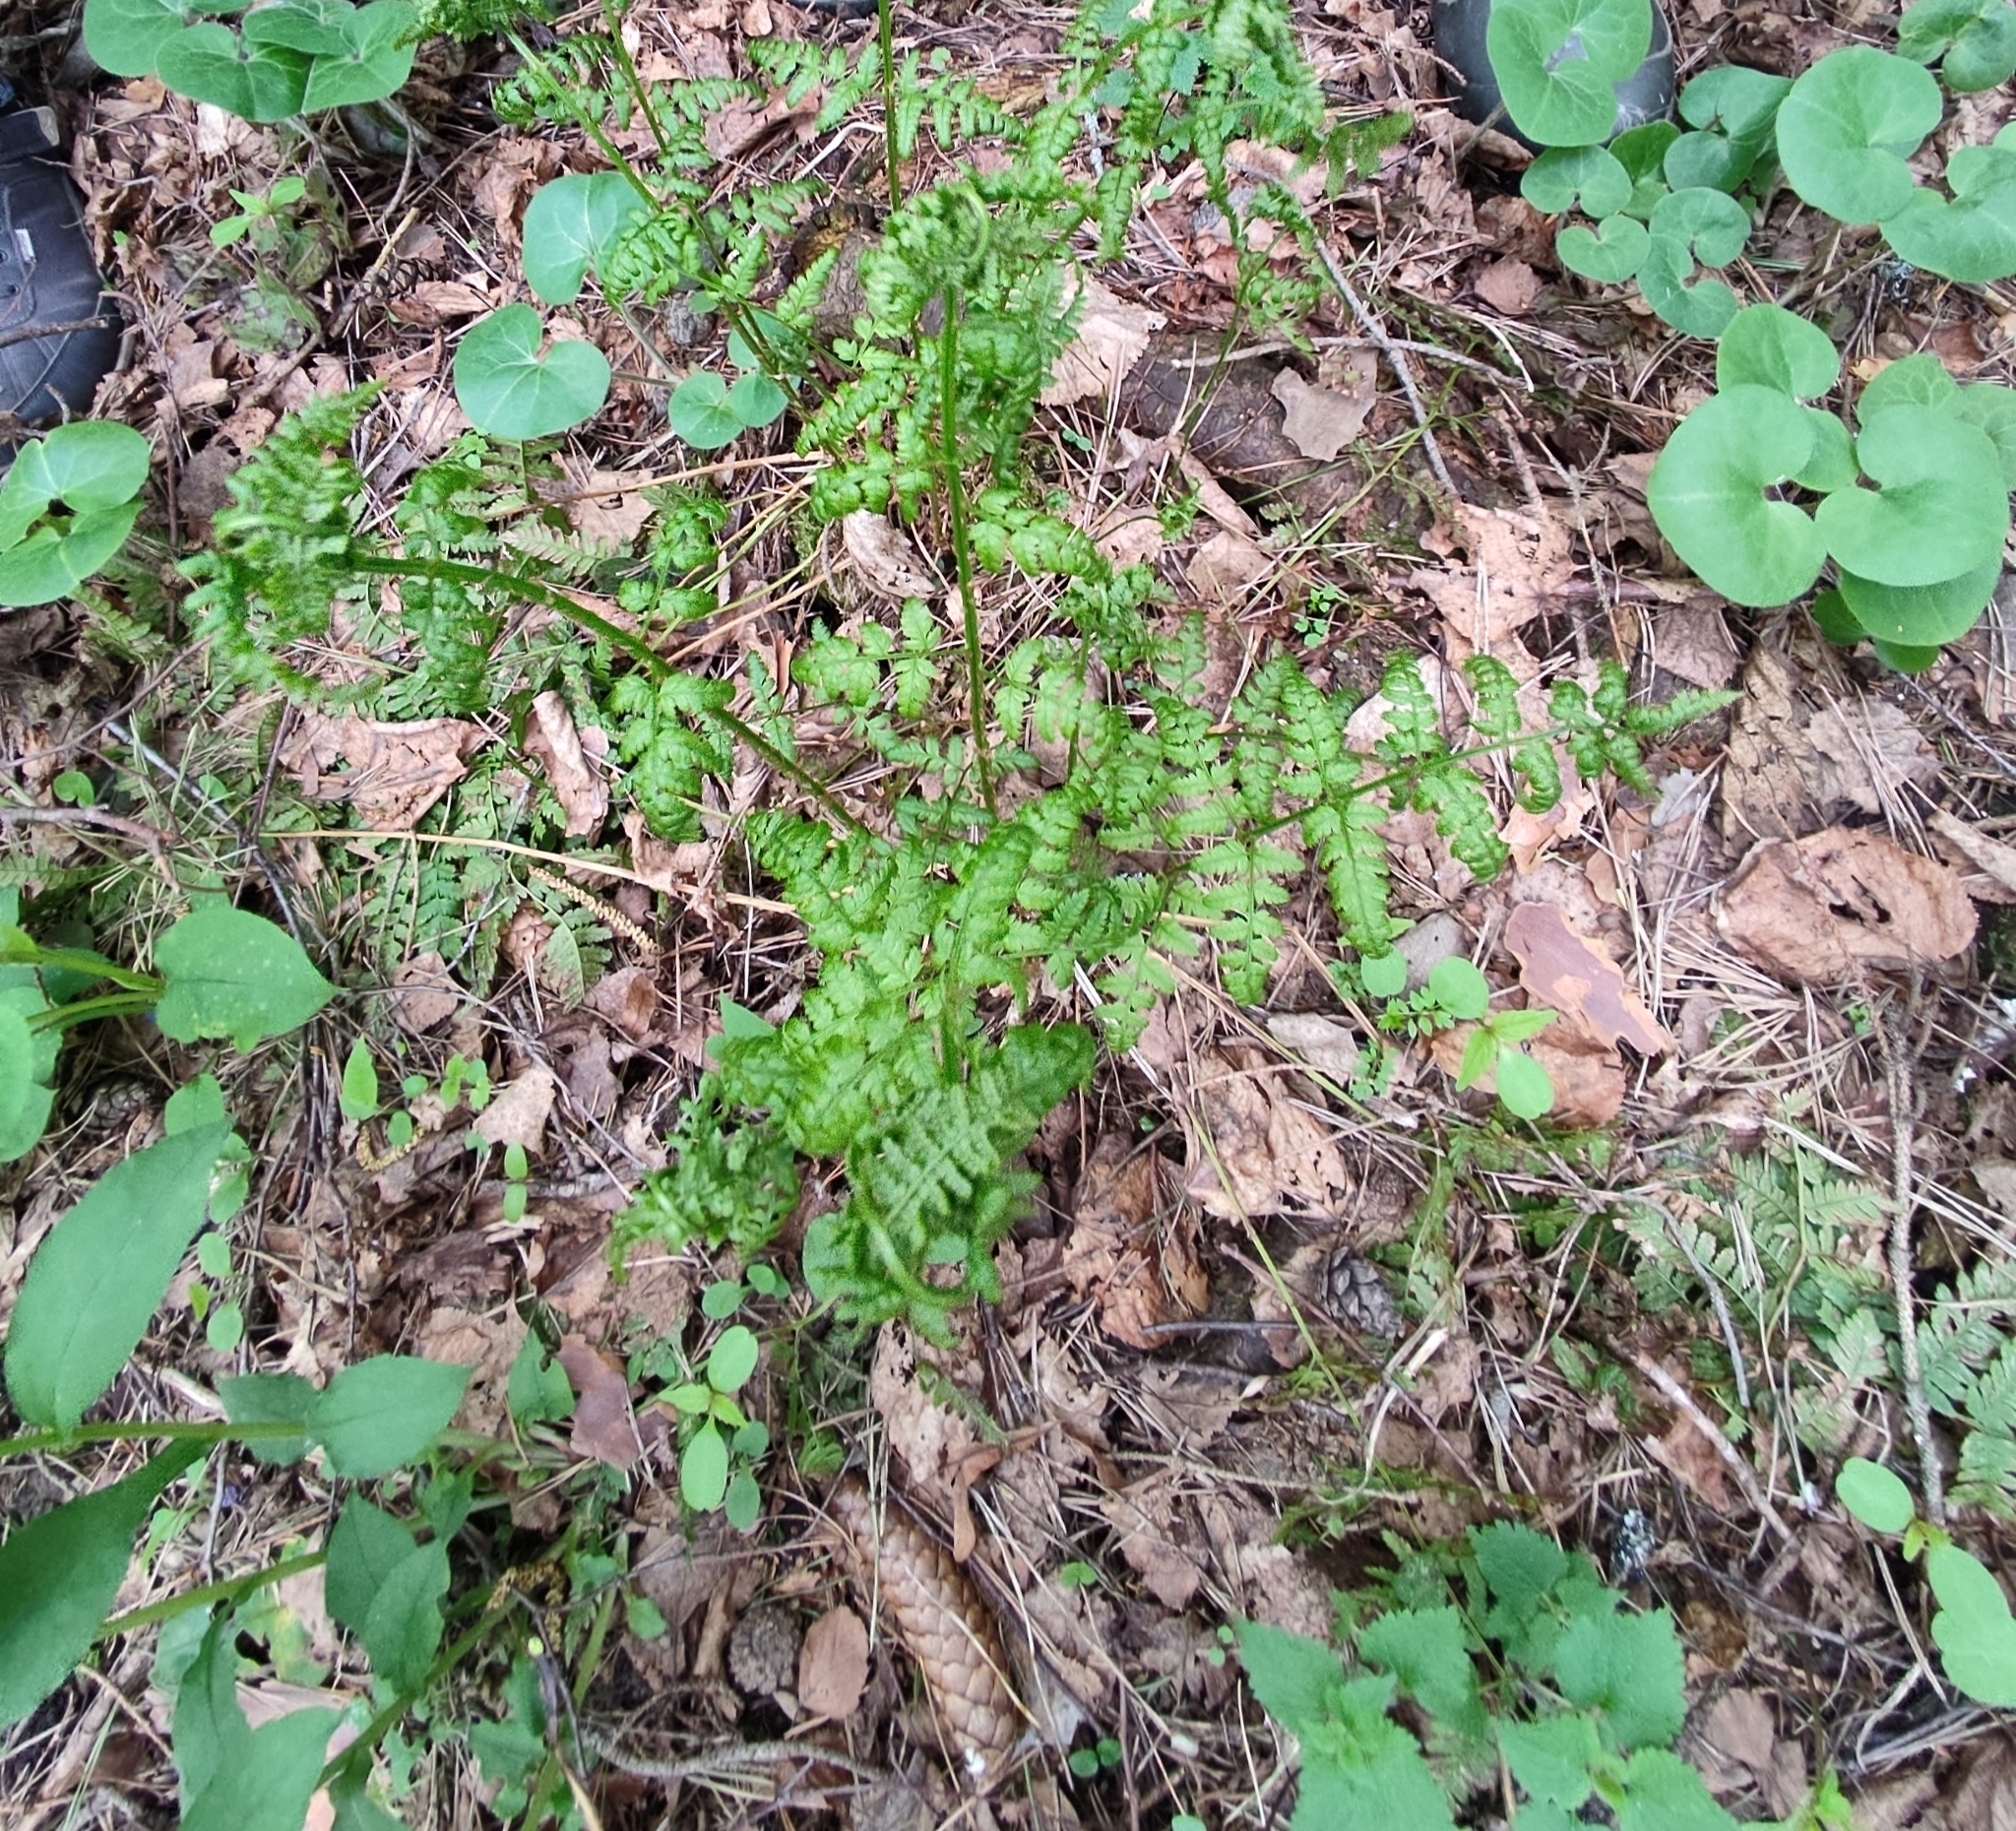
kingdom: Plantae
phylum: Tracheophyta
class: Polypodiopsida
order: Polypodiales
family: Athyriaceae
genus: Athyrium
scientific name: Athyrium filix-femina
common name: Lady fern
